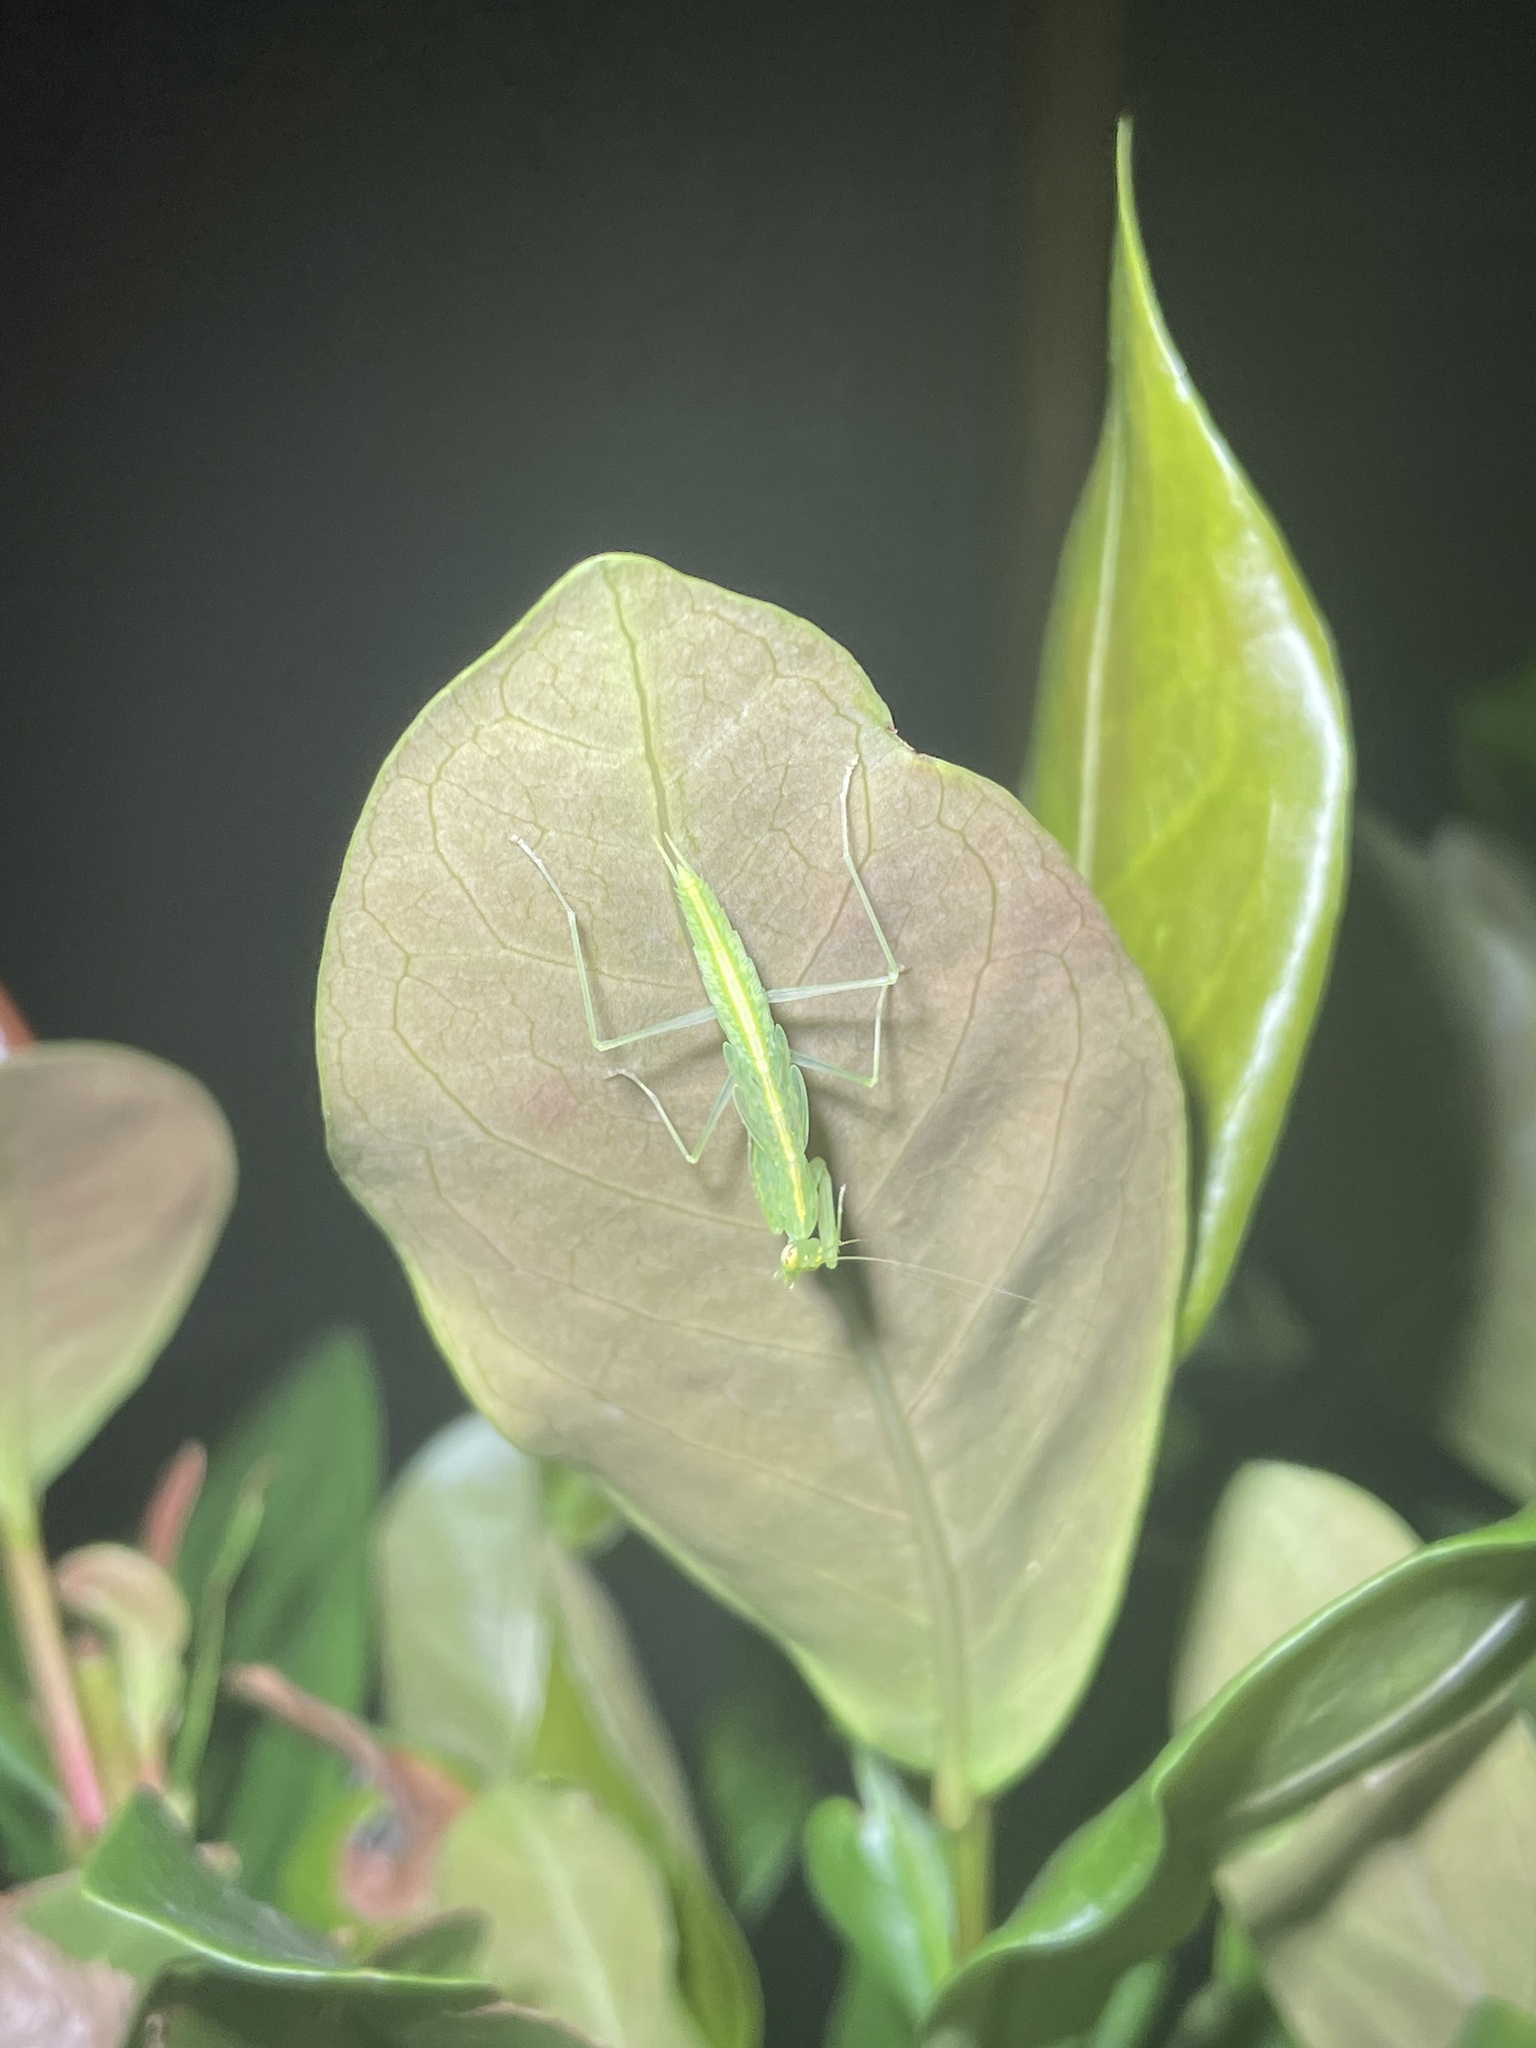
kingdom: Animalia
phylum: Arthropoda
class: Insecta
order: Mantodea
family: Nanomantidae
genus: Tropidomantis
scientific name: Tropidomantis gressitti
